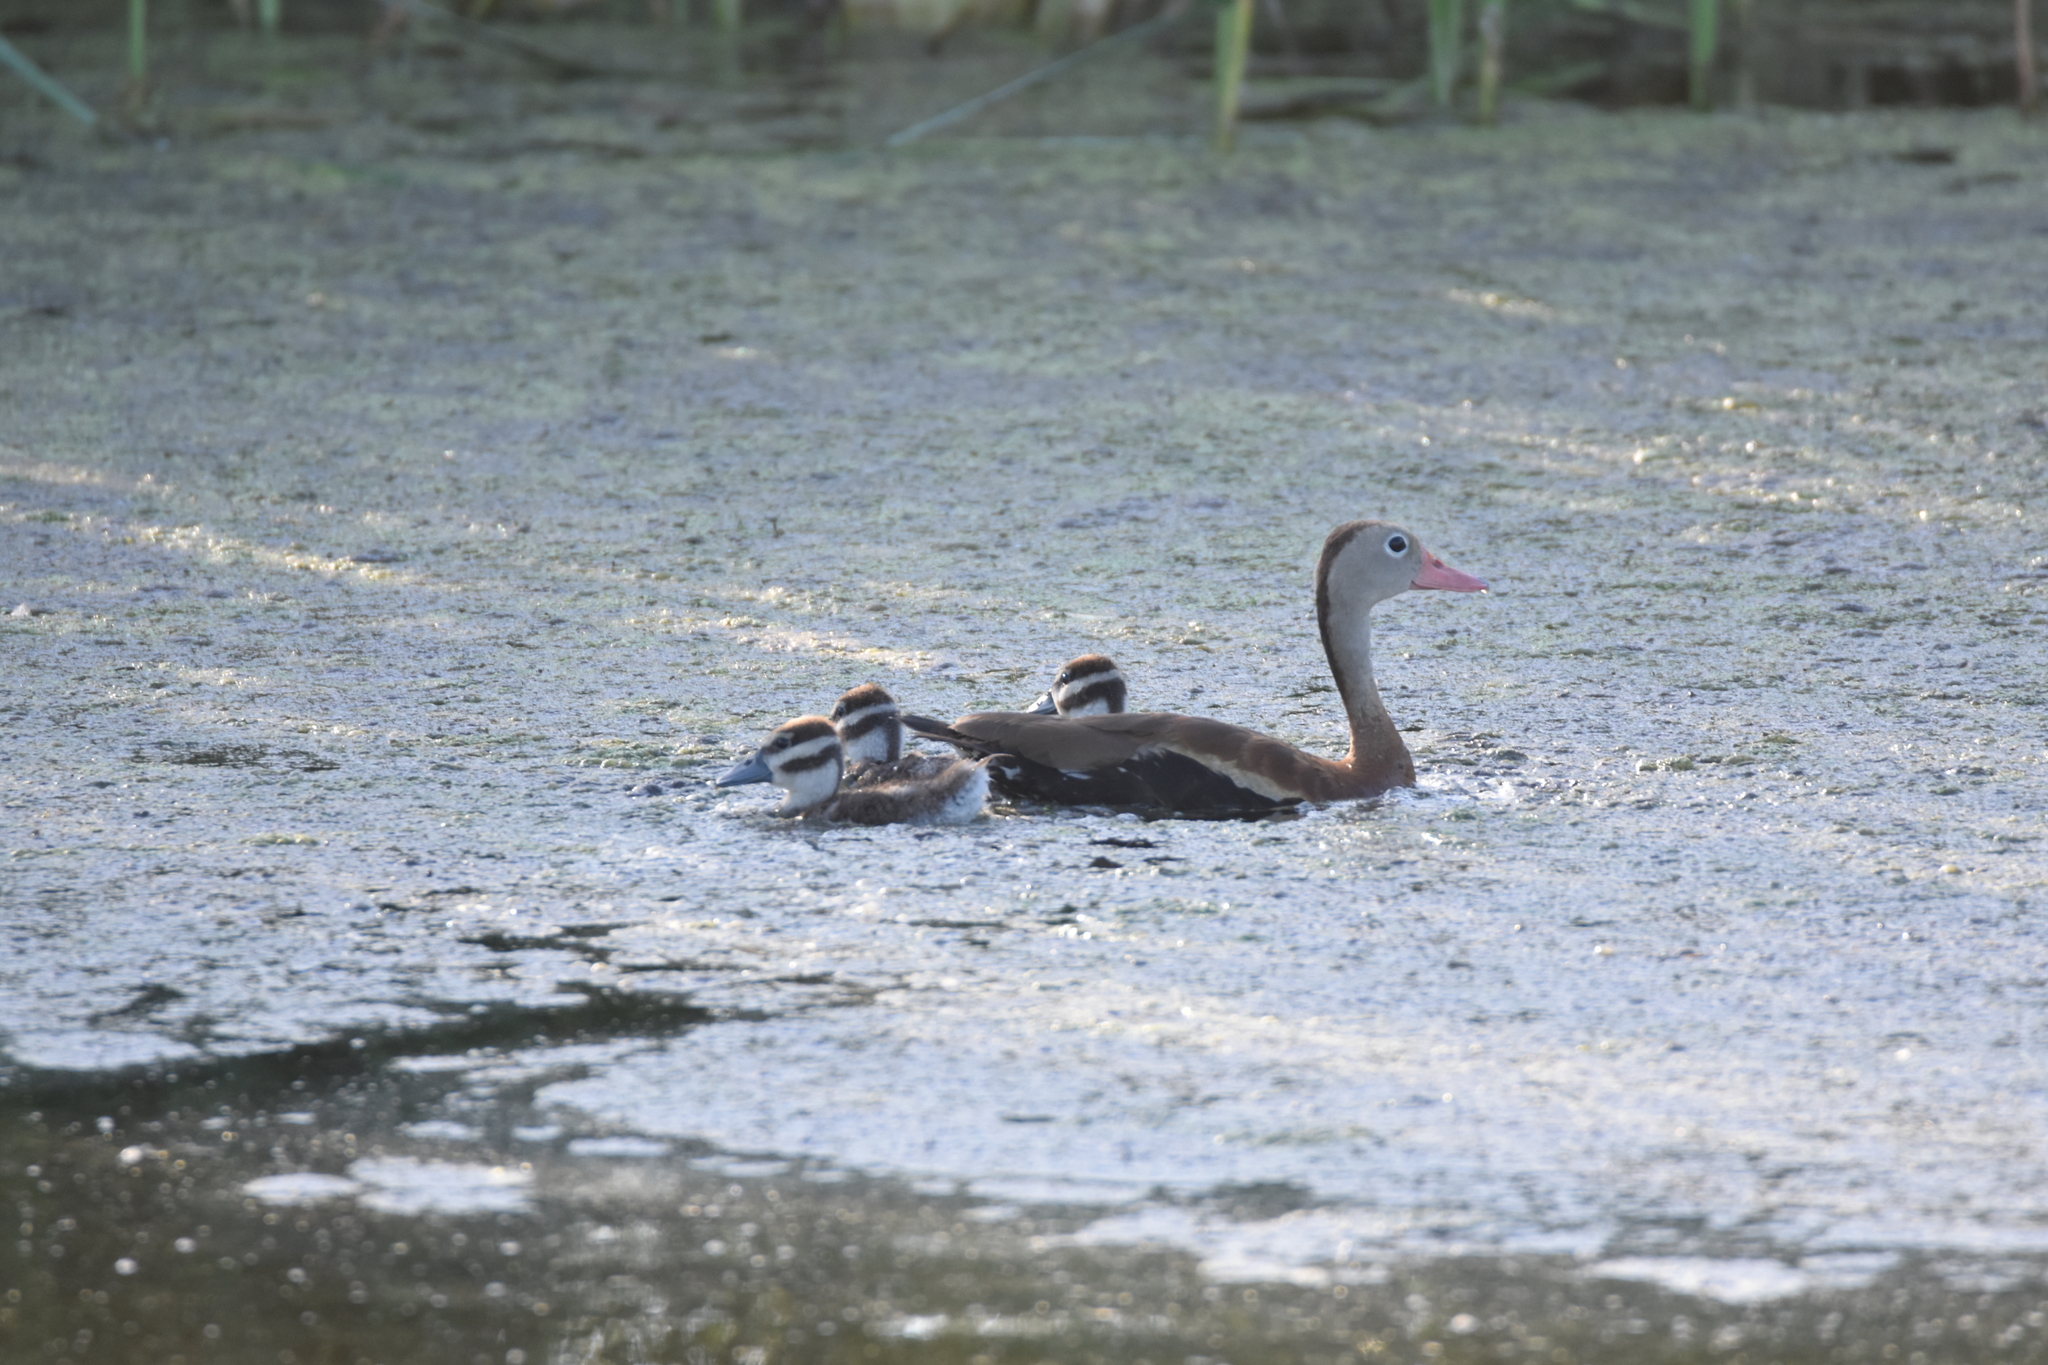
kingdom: Animalia
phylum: Chordata
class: Aves
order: Anseriformes
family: Anatidae
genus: Dendrocygna
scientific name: Dendrocygna autumnalis
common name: Black-bellied whistling duck
